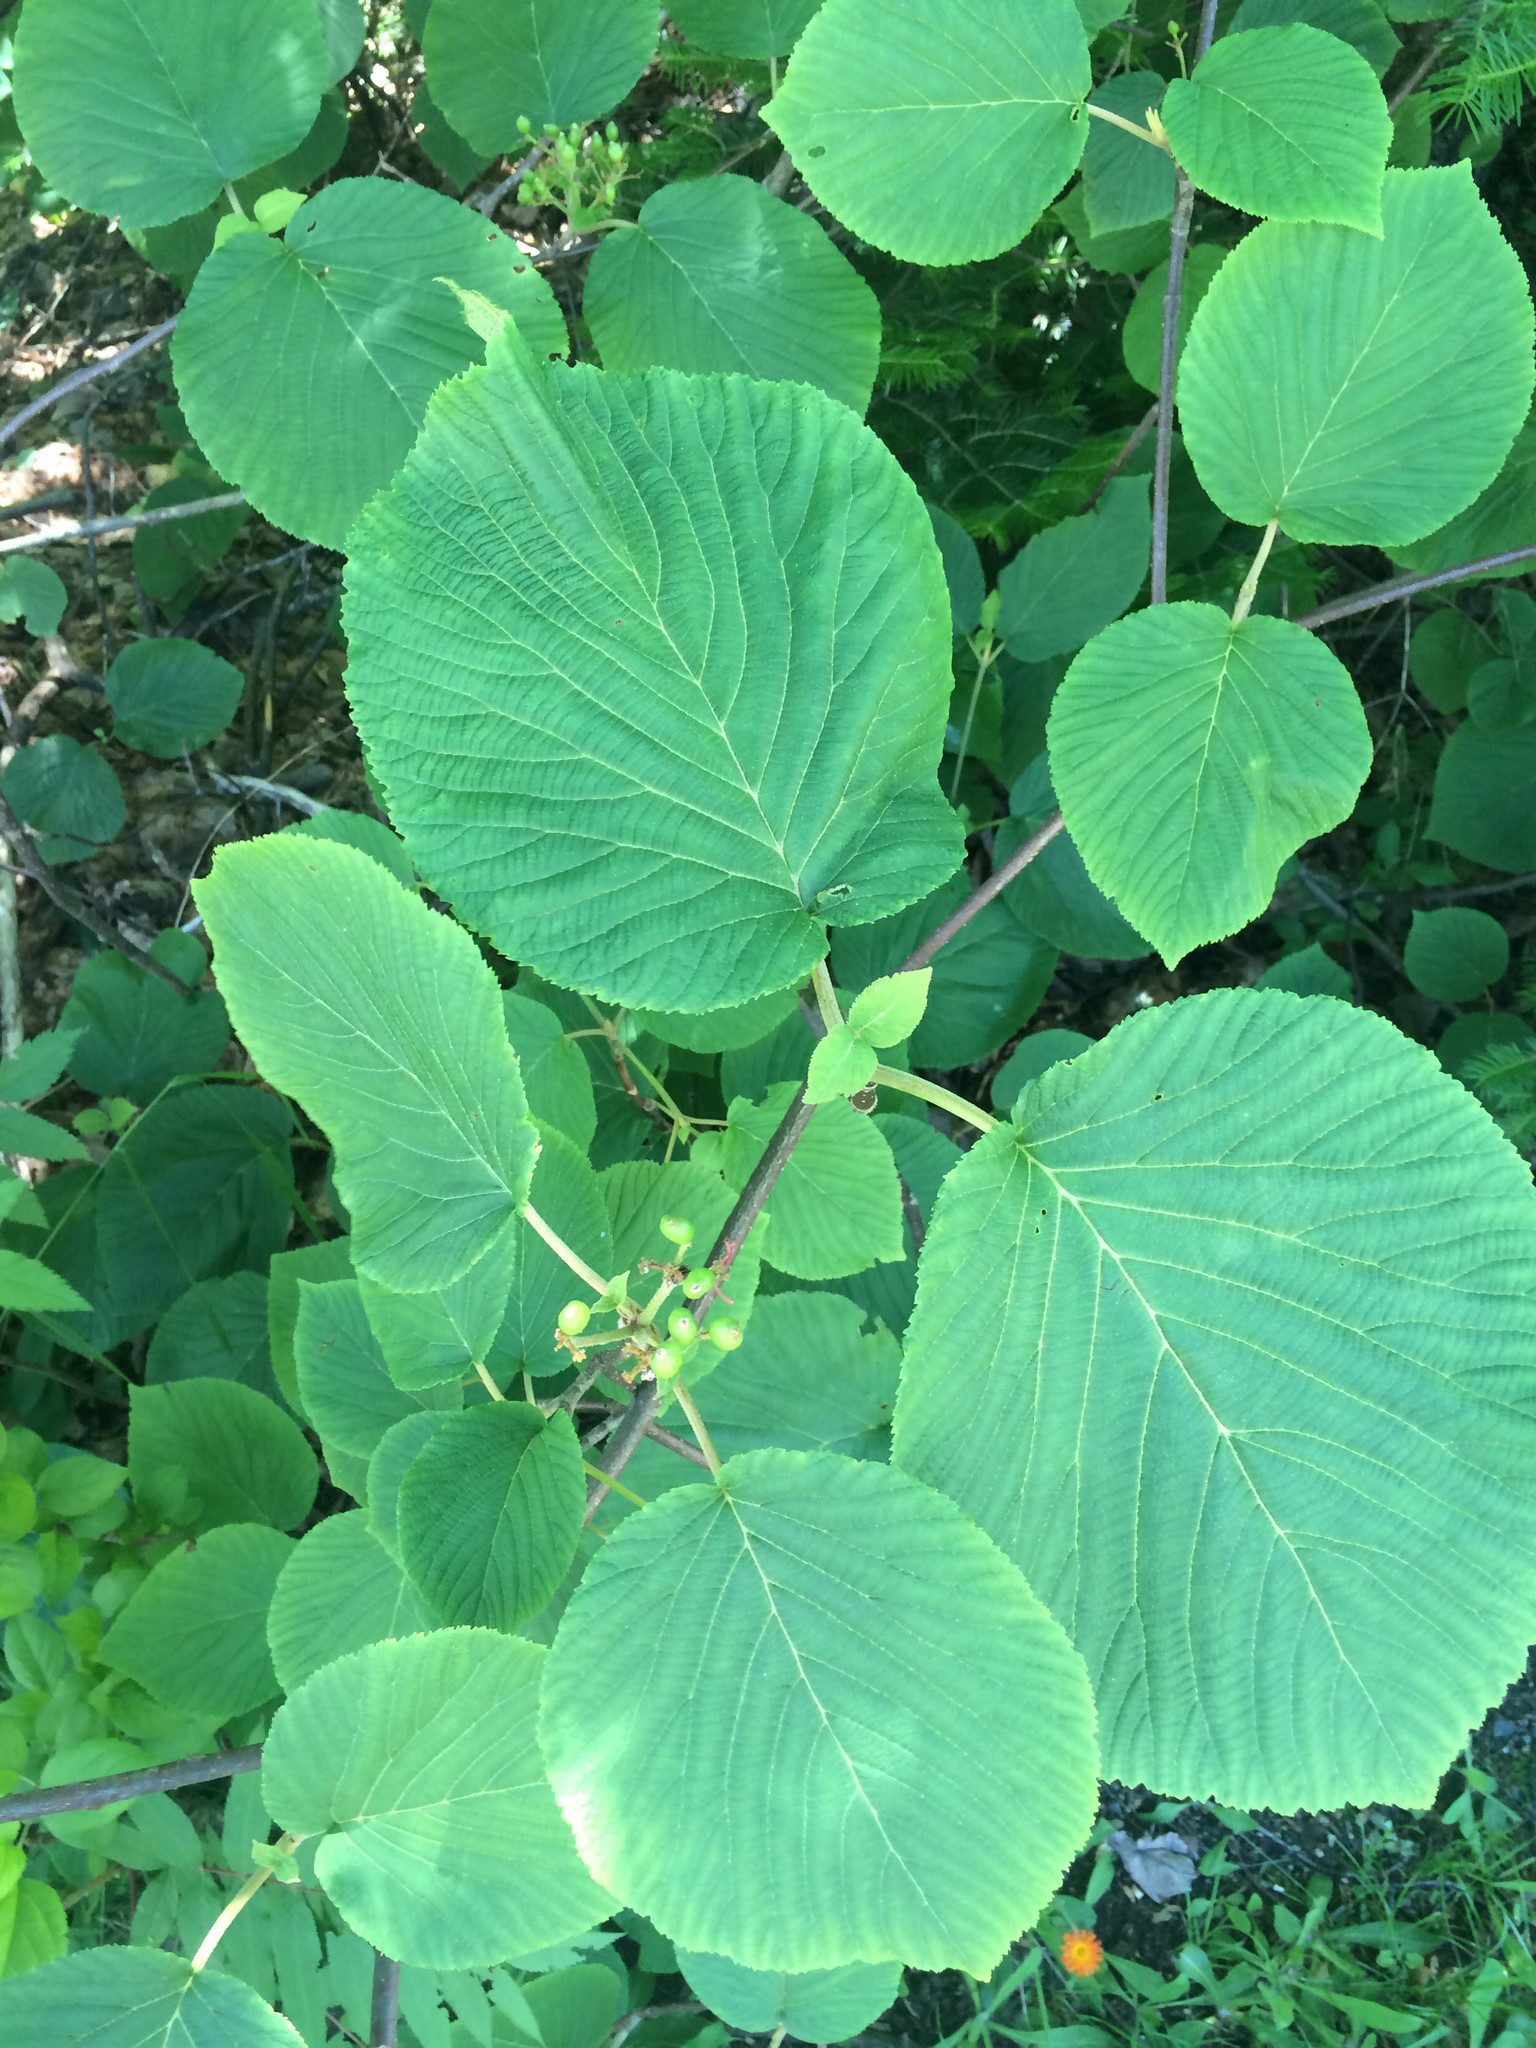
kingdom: Plantae
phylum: Tracheophyta
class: Magnoliopsida
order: Dipsacales
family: Viburnaceae
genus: Viburnum
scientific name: Viburnum lantanoides
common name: Hobblebush
